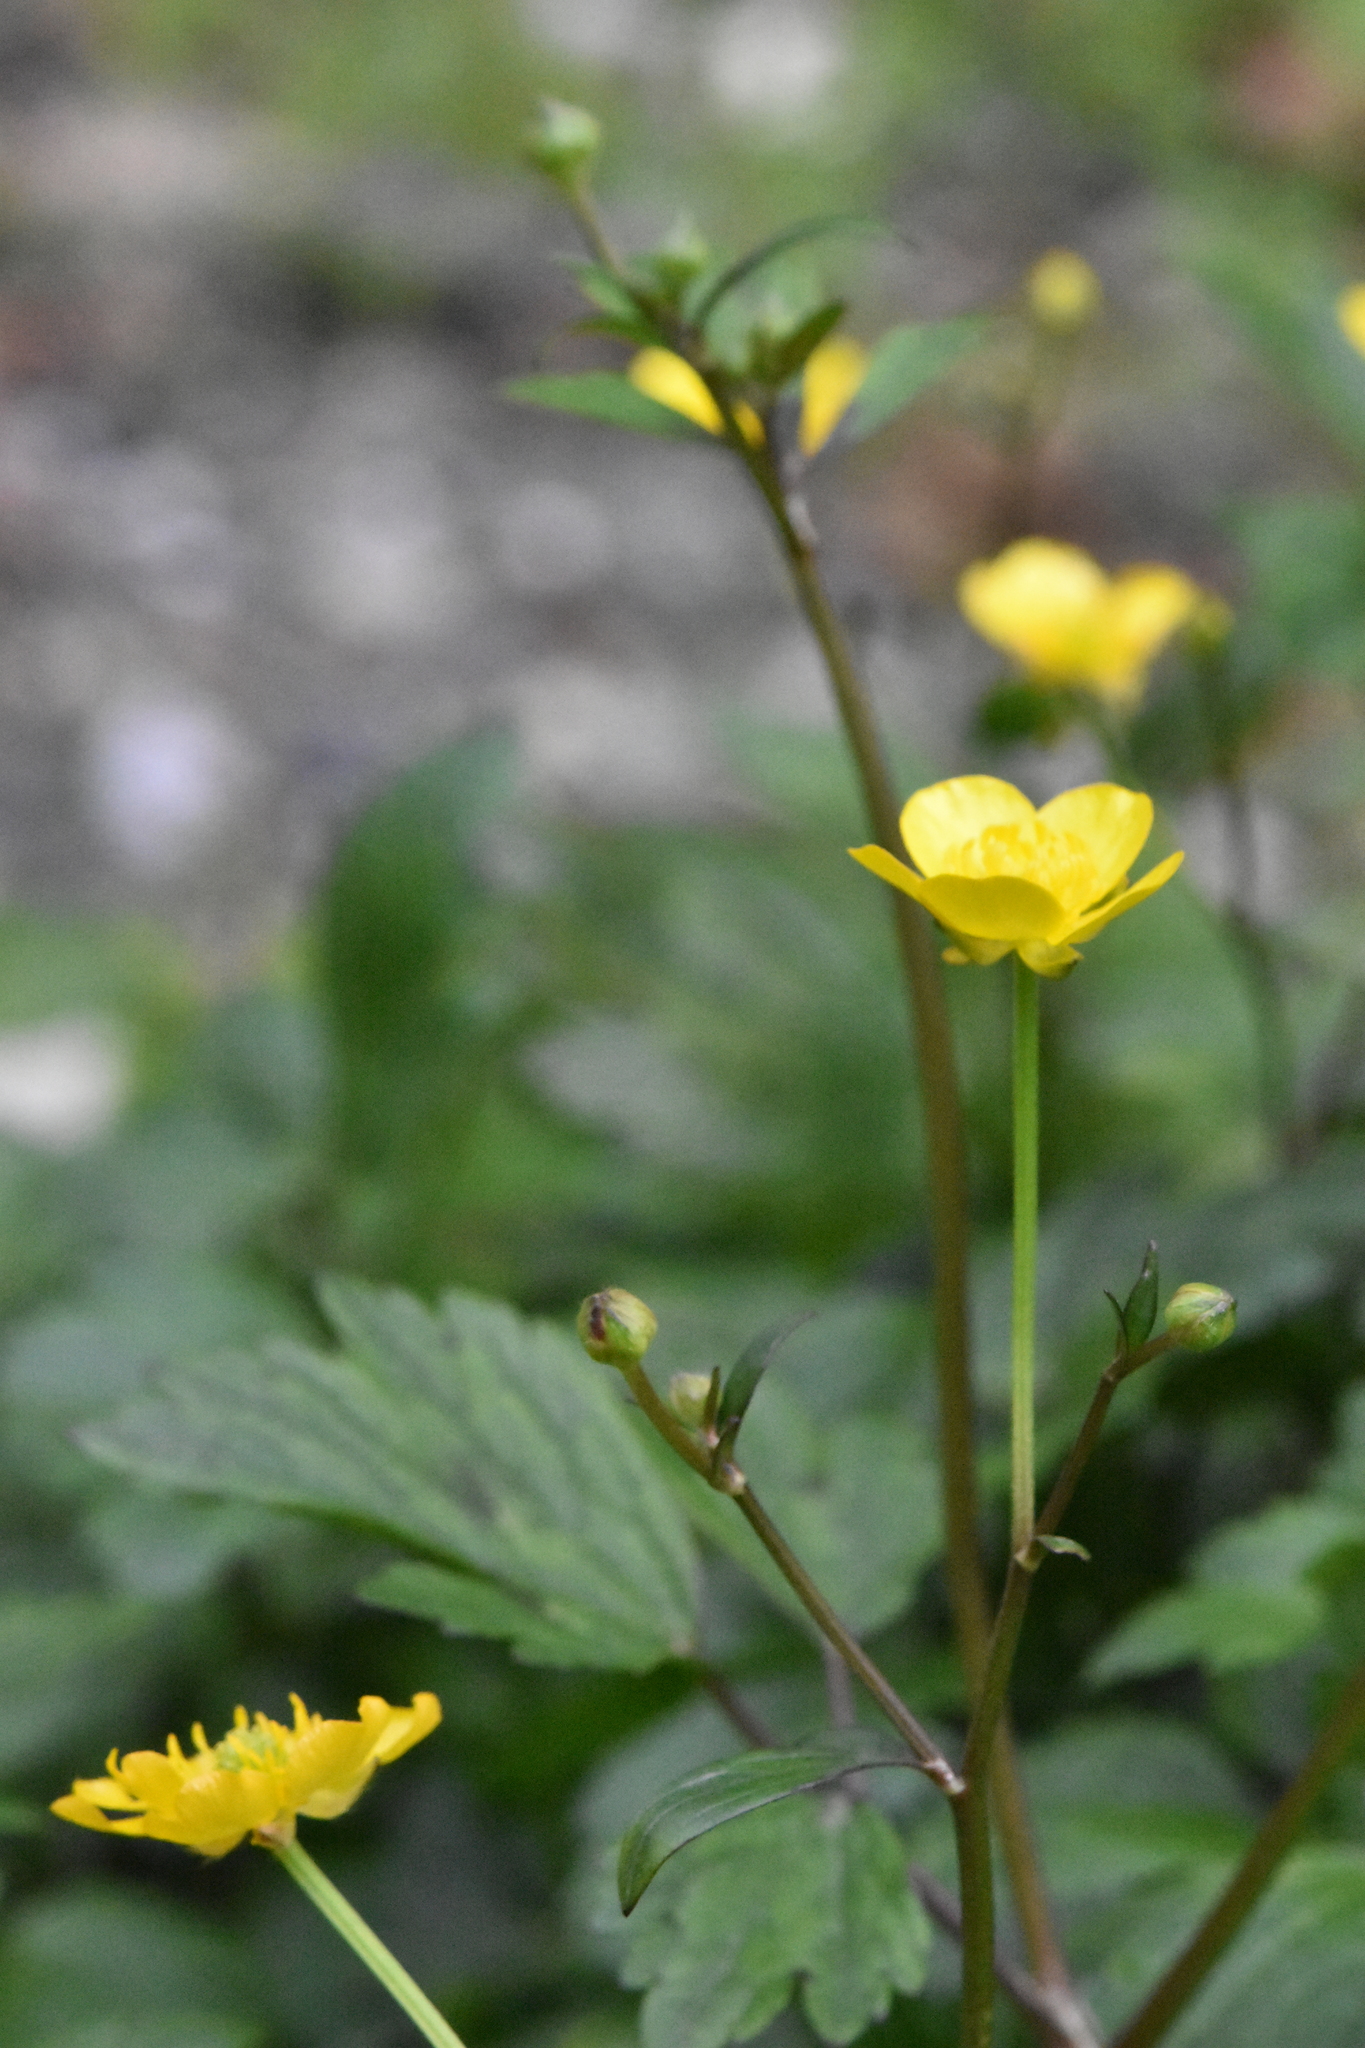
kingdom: Plantae
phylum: Tracheophyta
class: Magnoliopsida
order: Ranunculales
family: Ranunculaceae
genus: Ranunculus
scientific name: Ranunculus repens
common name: Creeping buttercup
